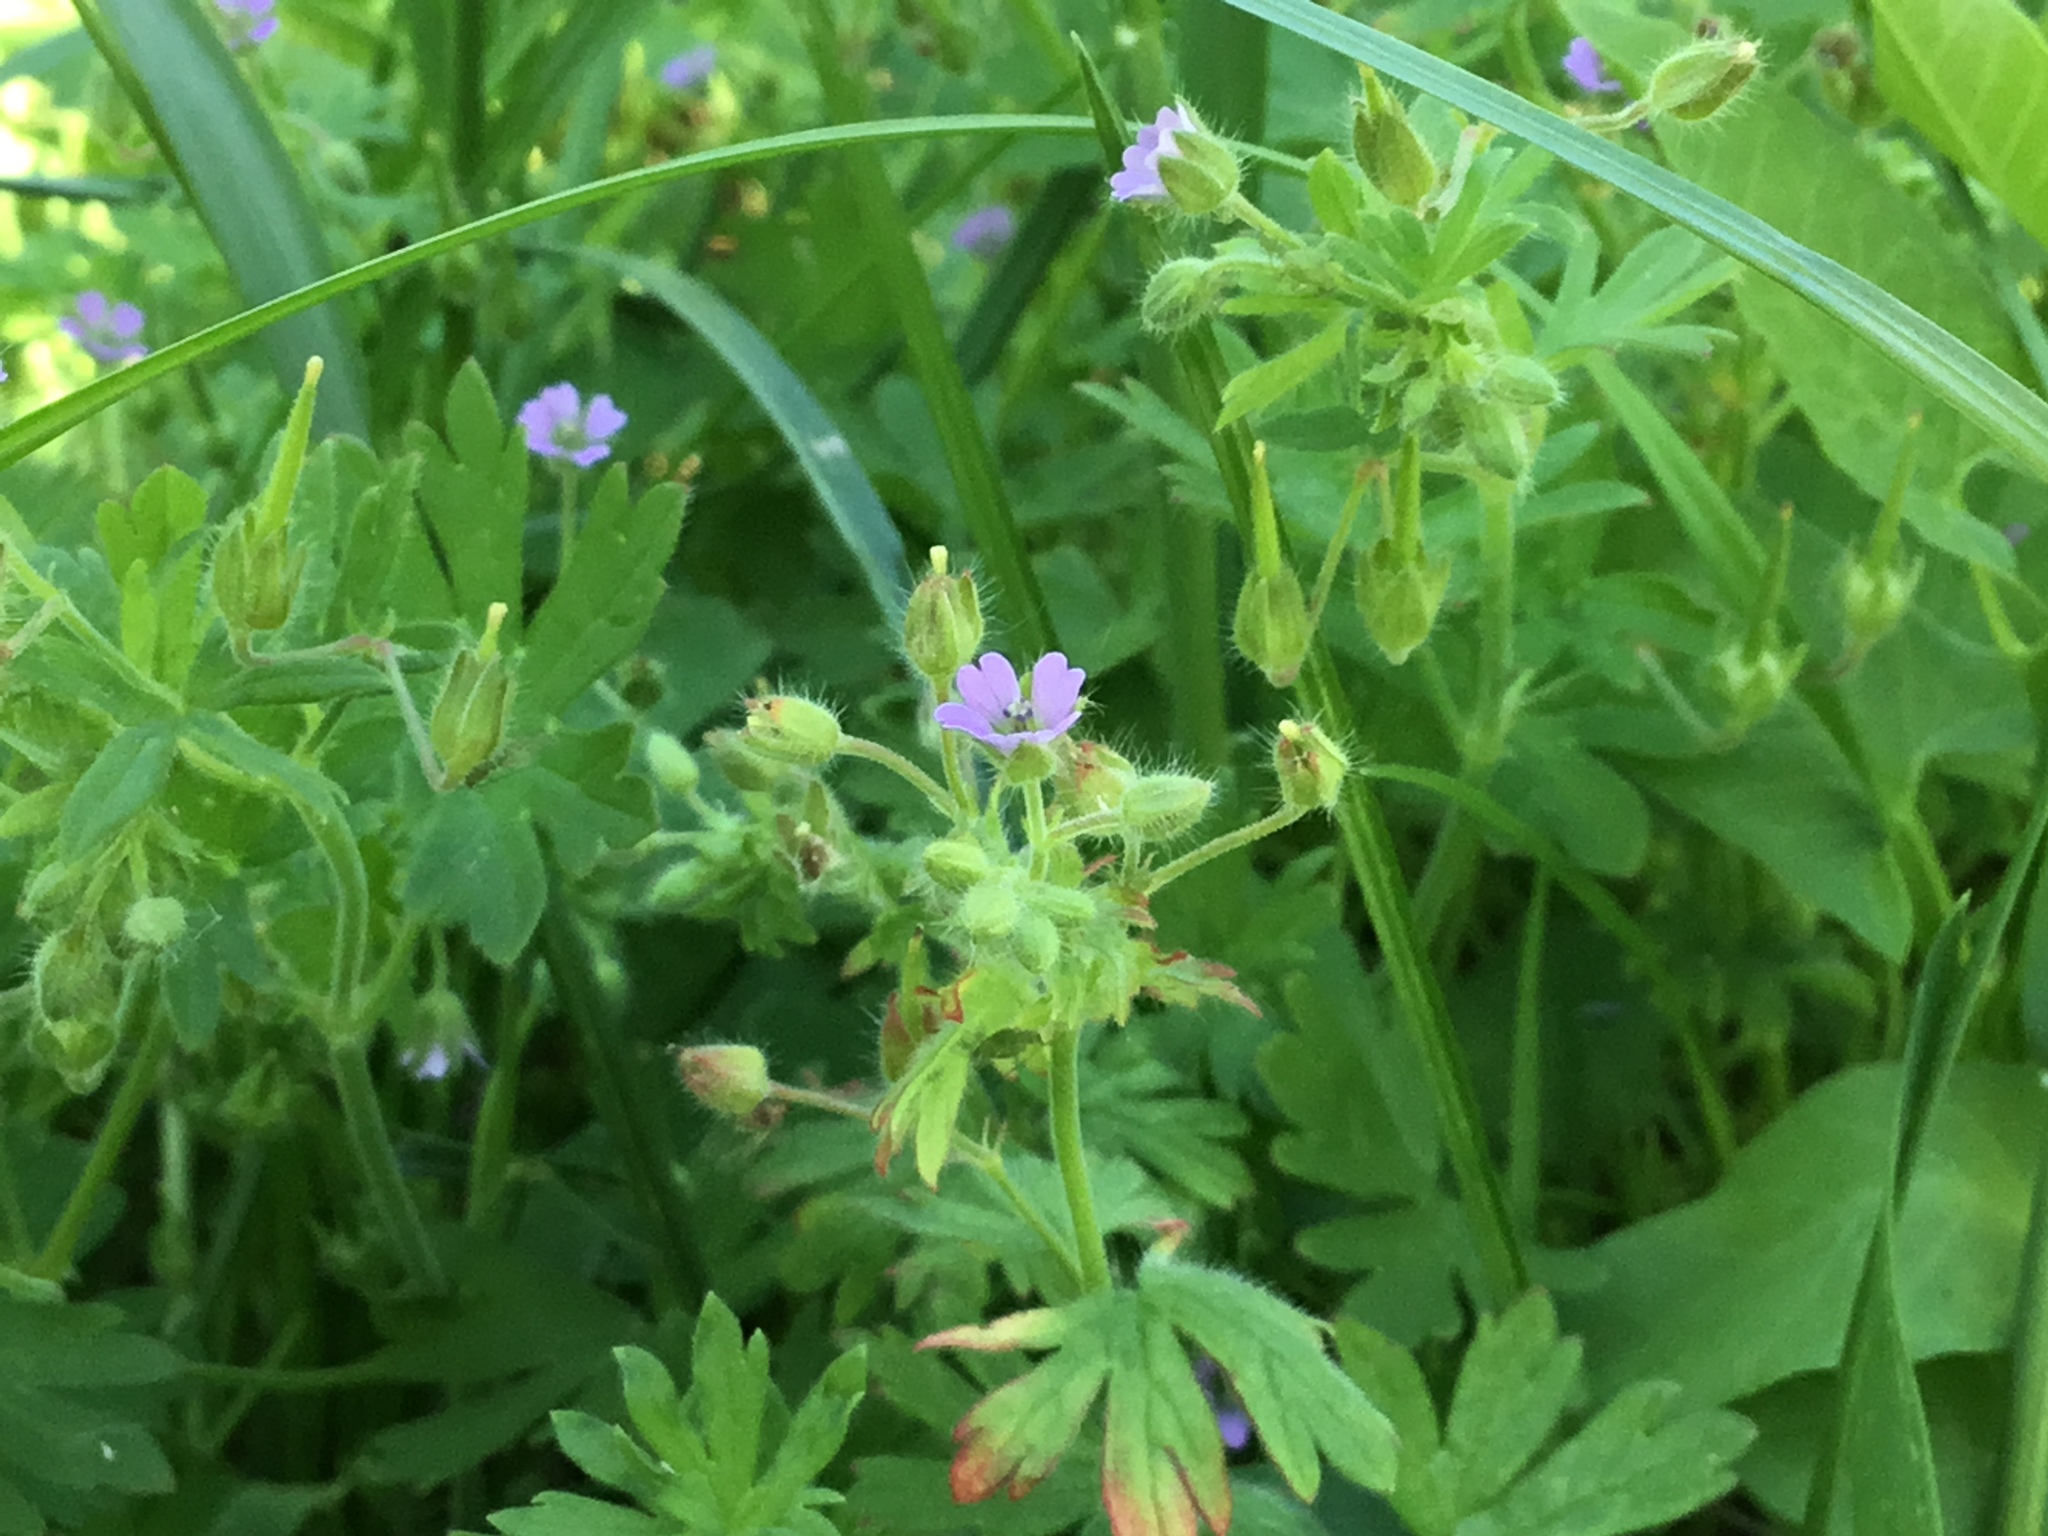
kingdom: Plantae
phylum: Tracheophyta
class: Magnoliopsida
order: Geraniales
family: Geraniaceae
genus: Geranium
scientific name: Geranium pusillum
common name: Small geranium
